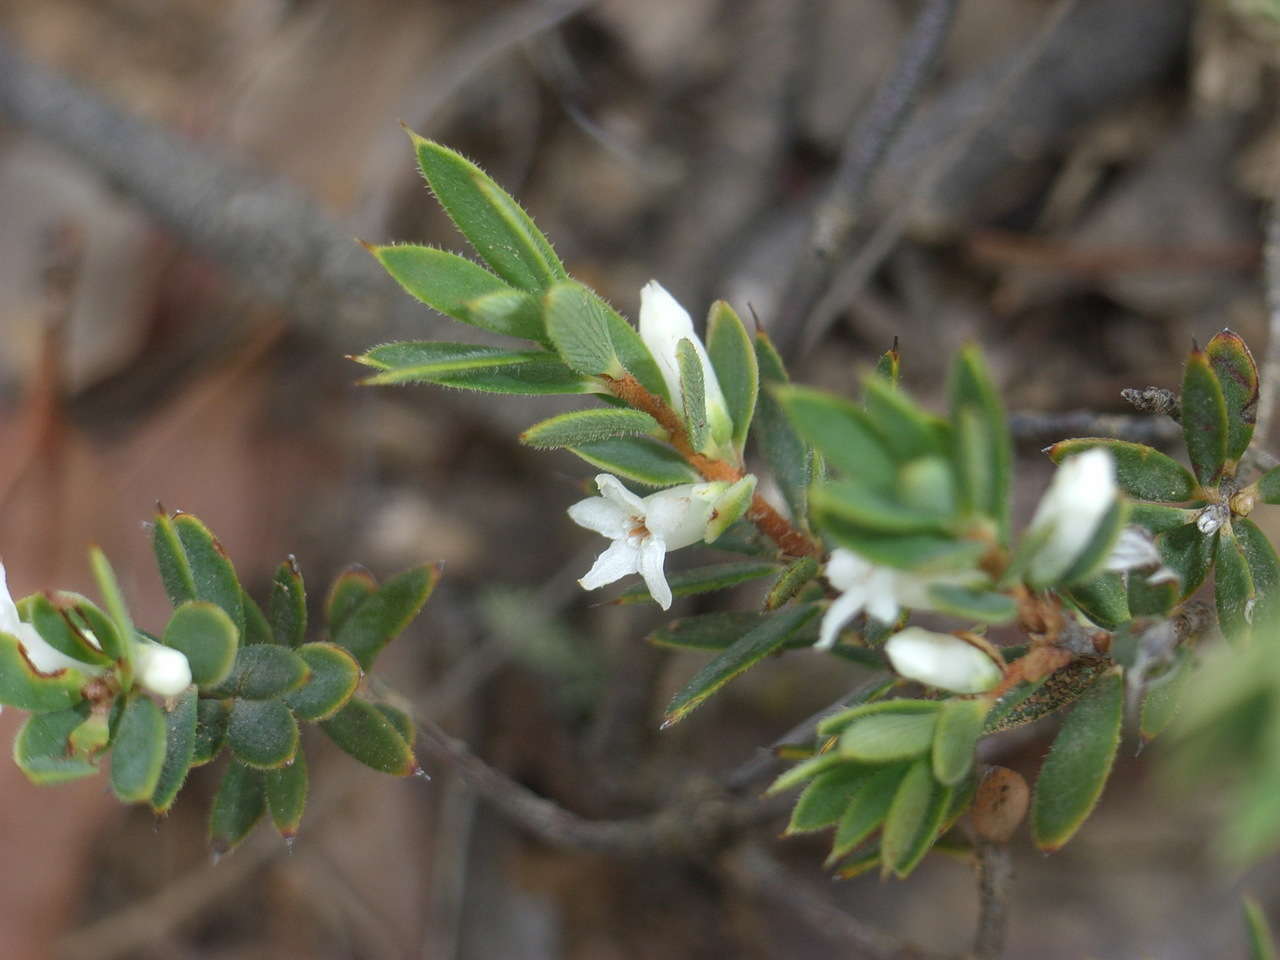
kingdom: Plantae
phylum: Tracheophyta
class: Magnoliopsida
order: Ericales
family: Ericaceae
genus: Brachyloma
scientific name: Brachyloma ciliatum
